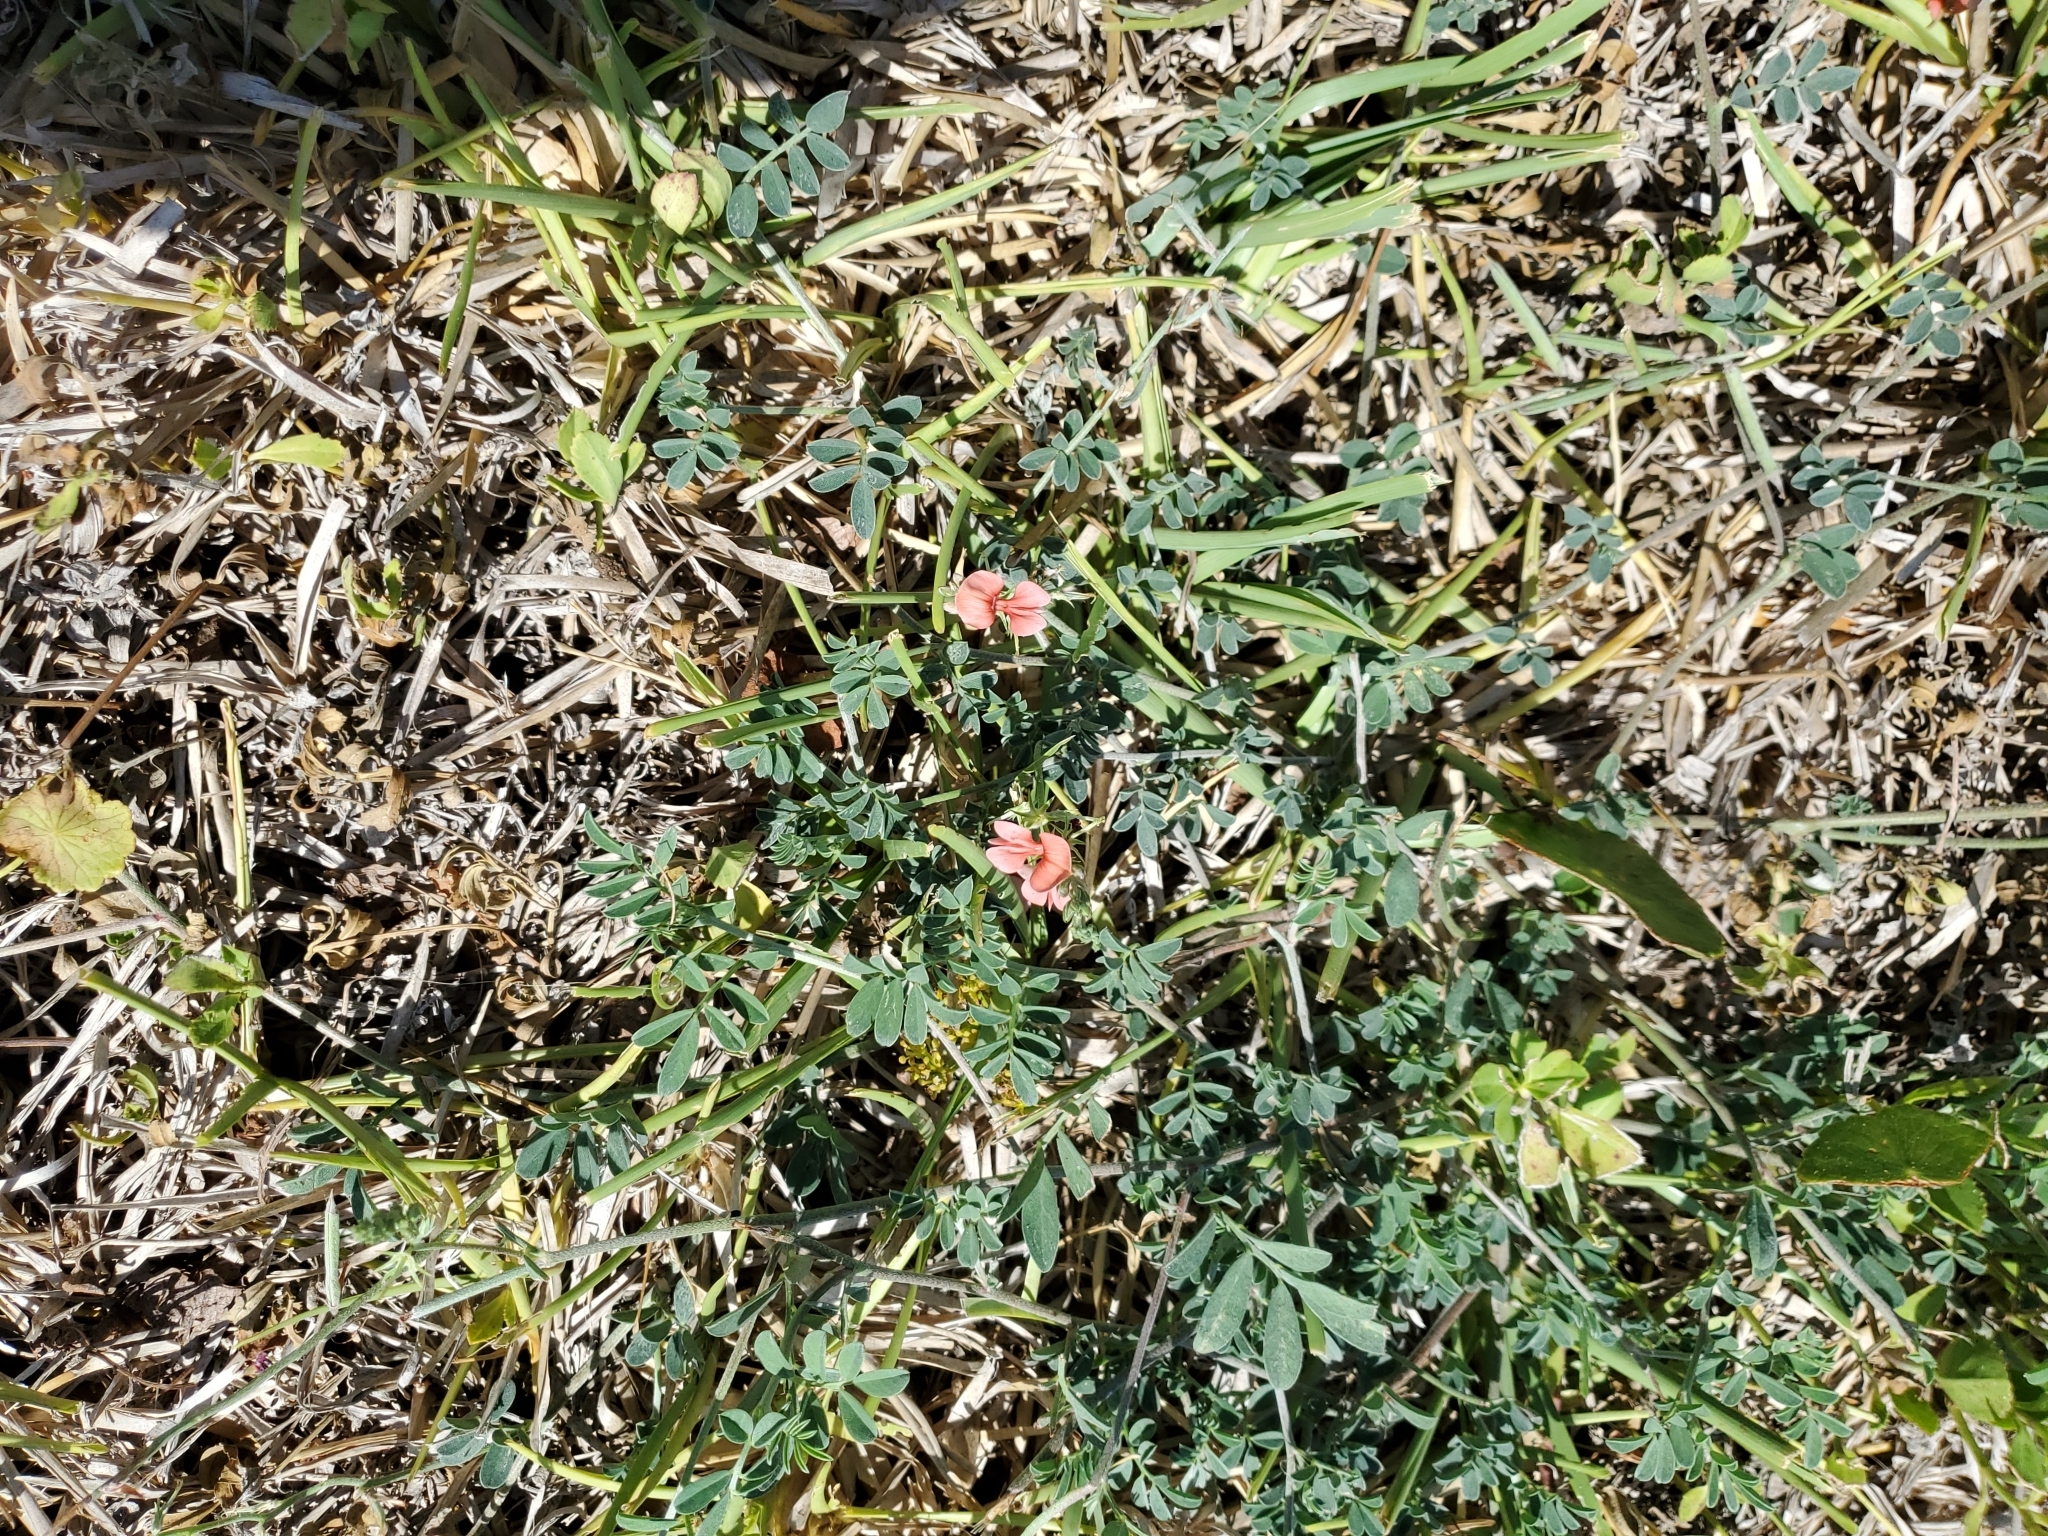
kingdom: Plantae
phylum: Tracheophyta
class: Magnoliopsida
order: Fabales
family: Fabaceae
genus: Indigofera
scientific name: Indigofera miniata
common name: Coast indigo
